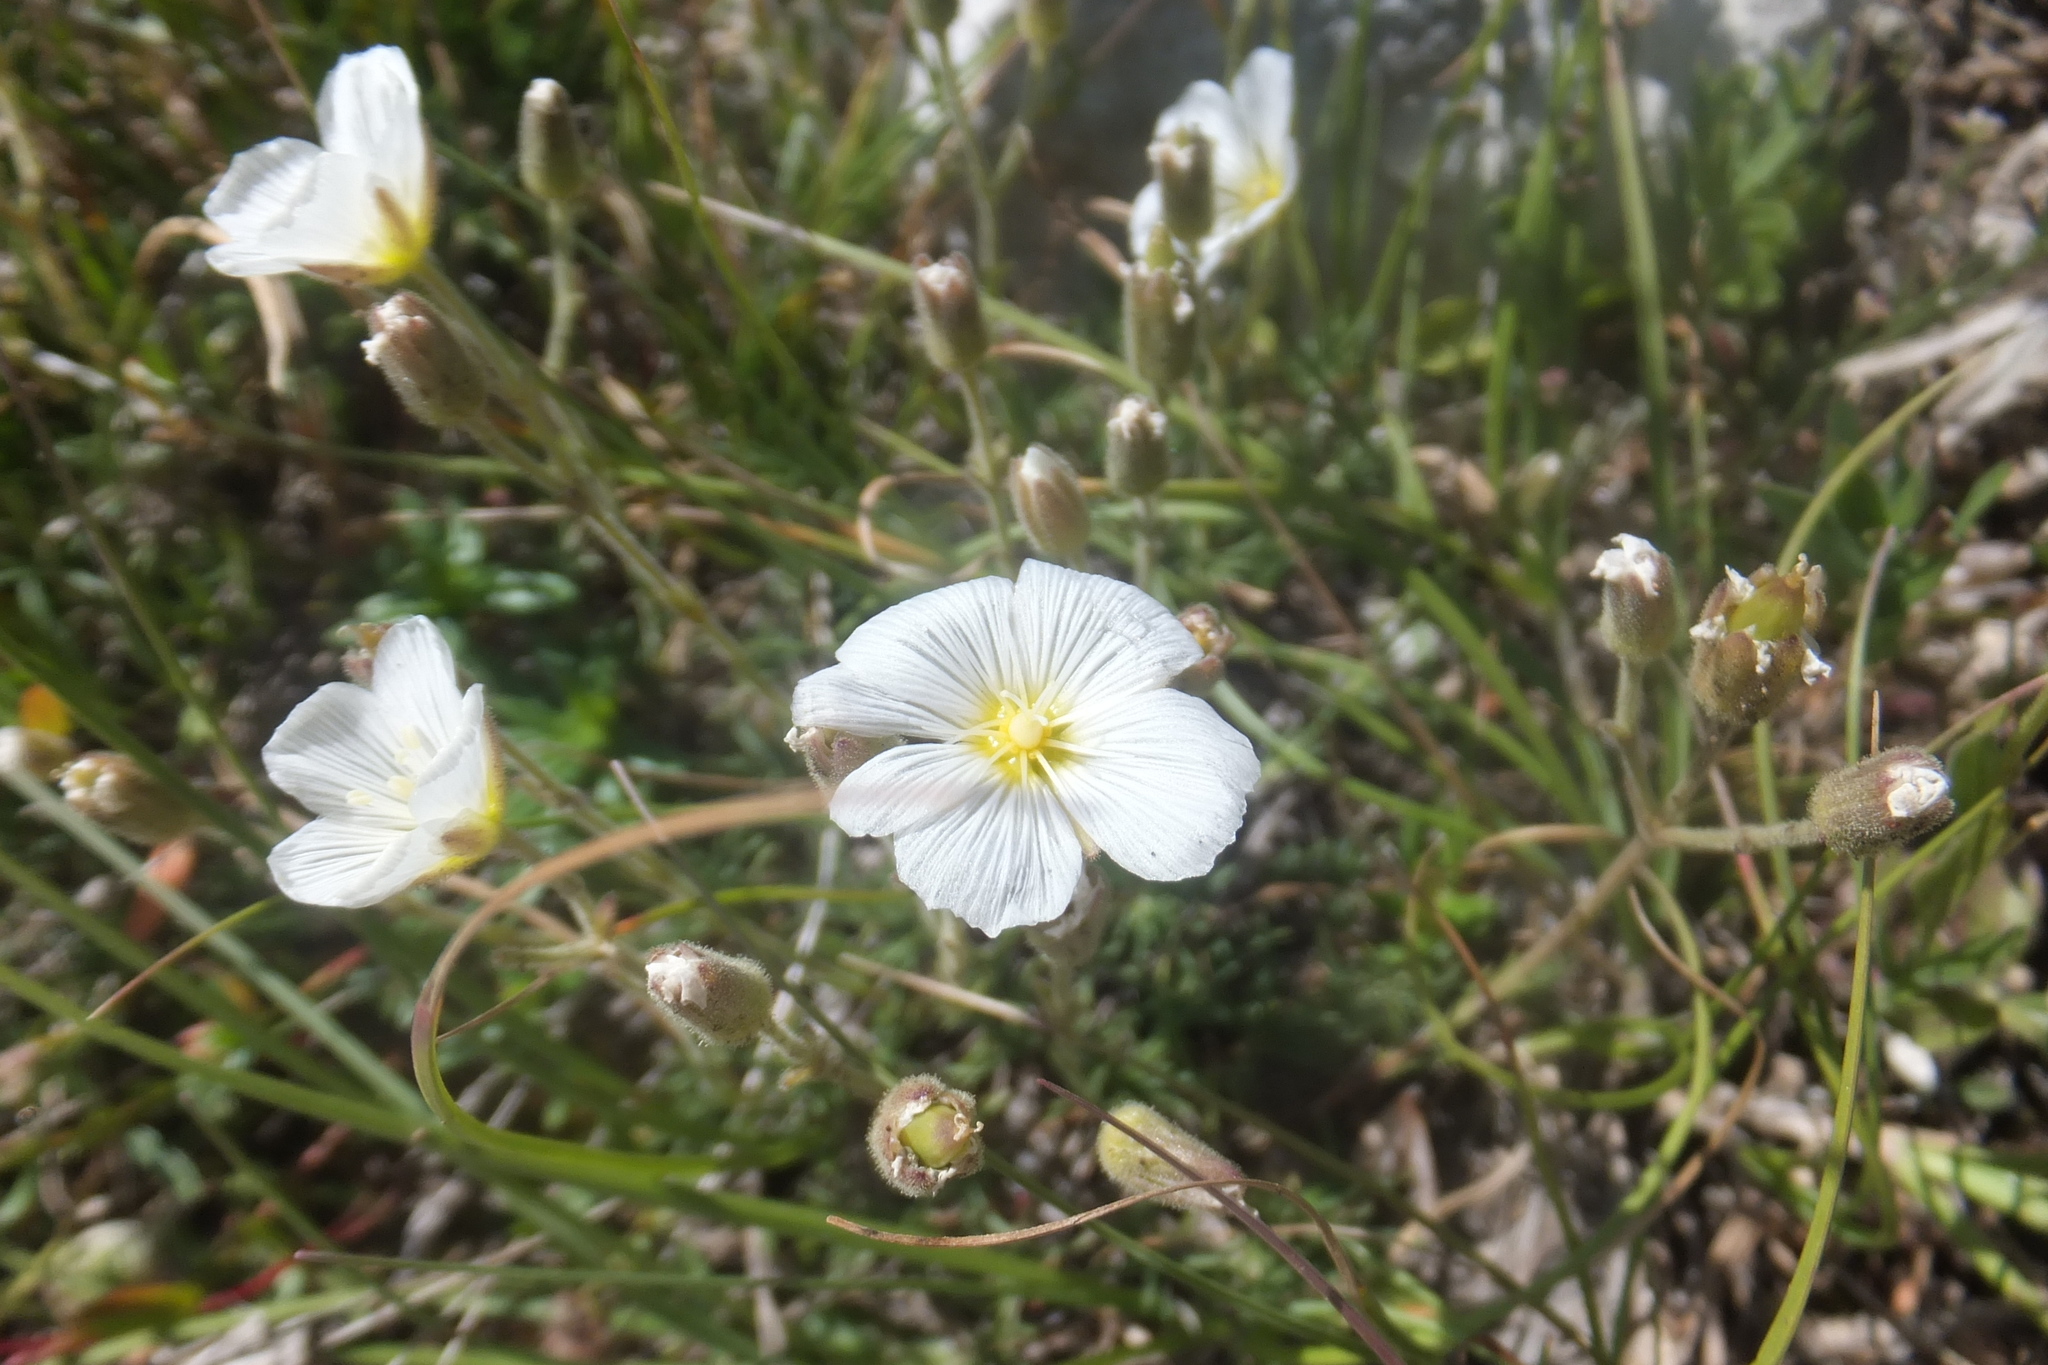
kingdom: Plantae
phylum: Tracheophyta
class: Magnoliopsida
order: Caryophyllales
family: Caryophyllaceae
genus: Cherleria
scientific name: Cherleria capillacea
